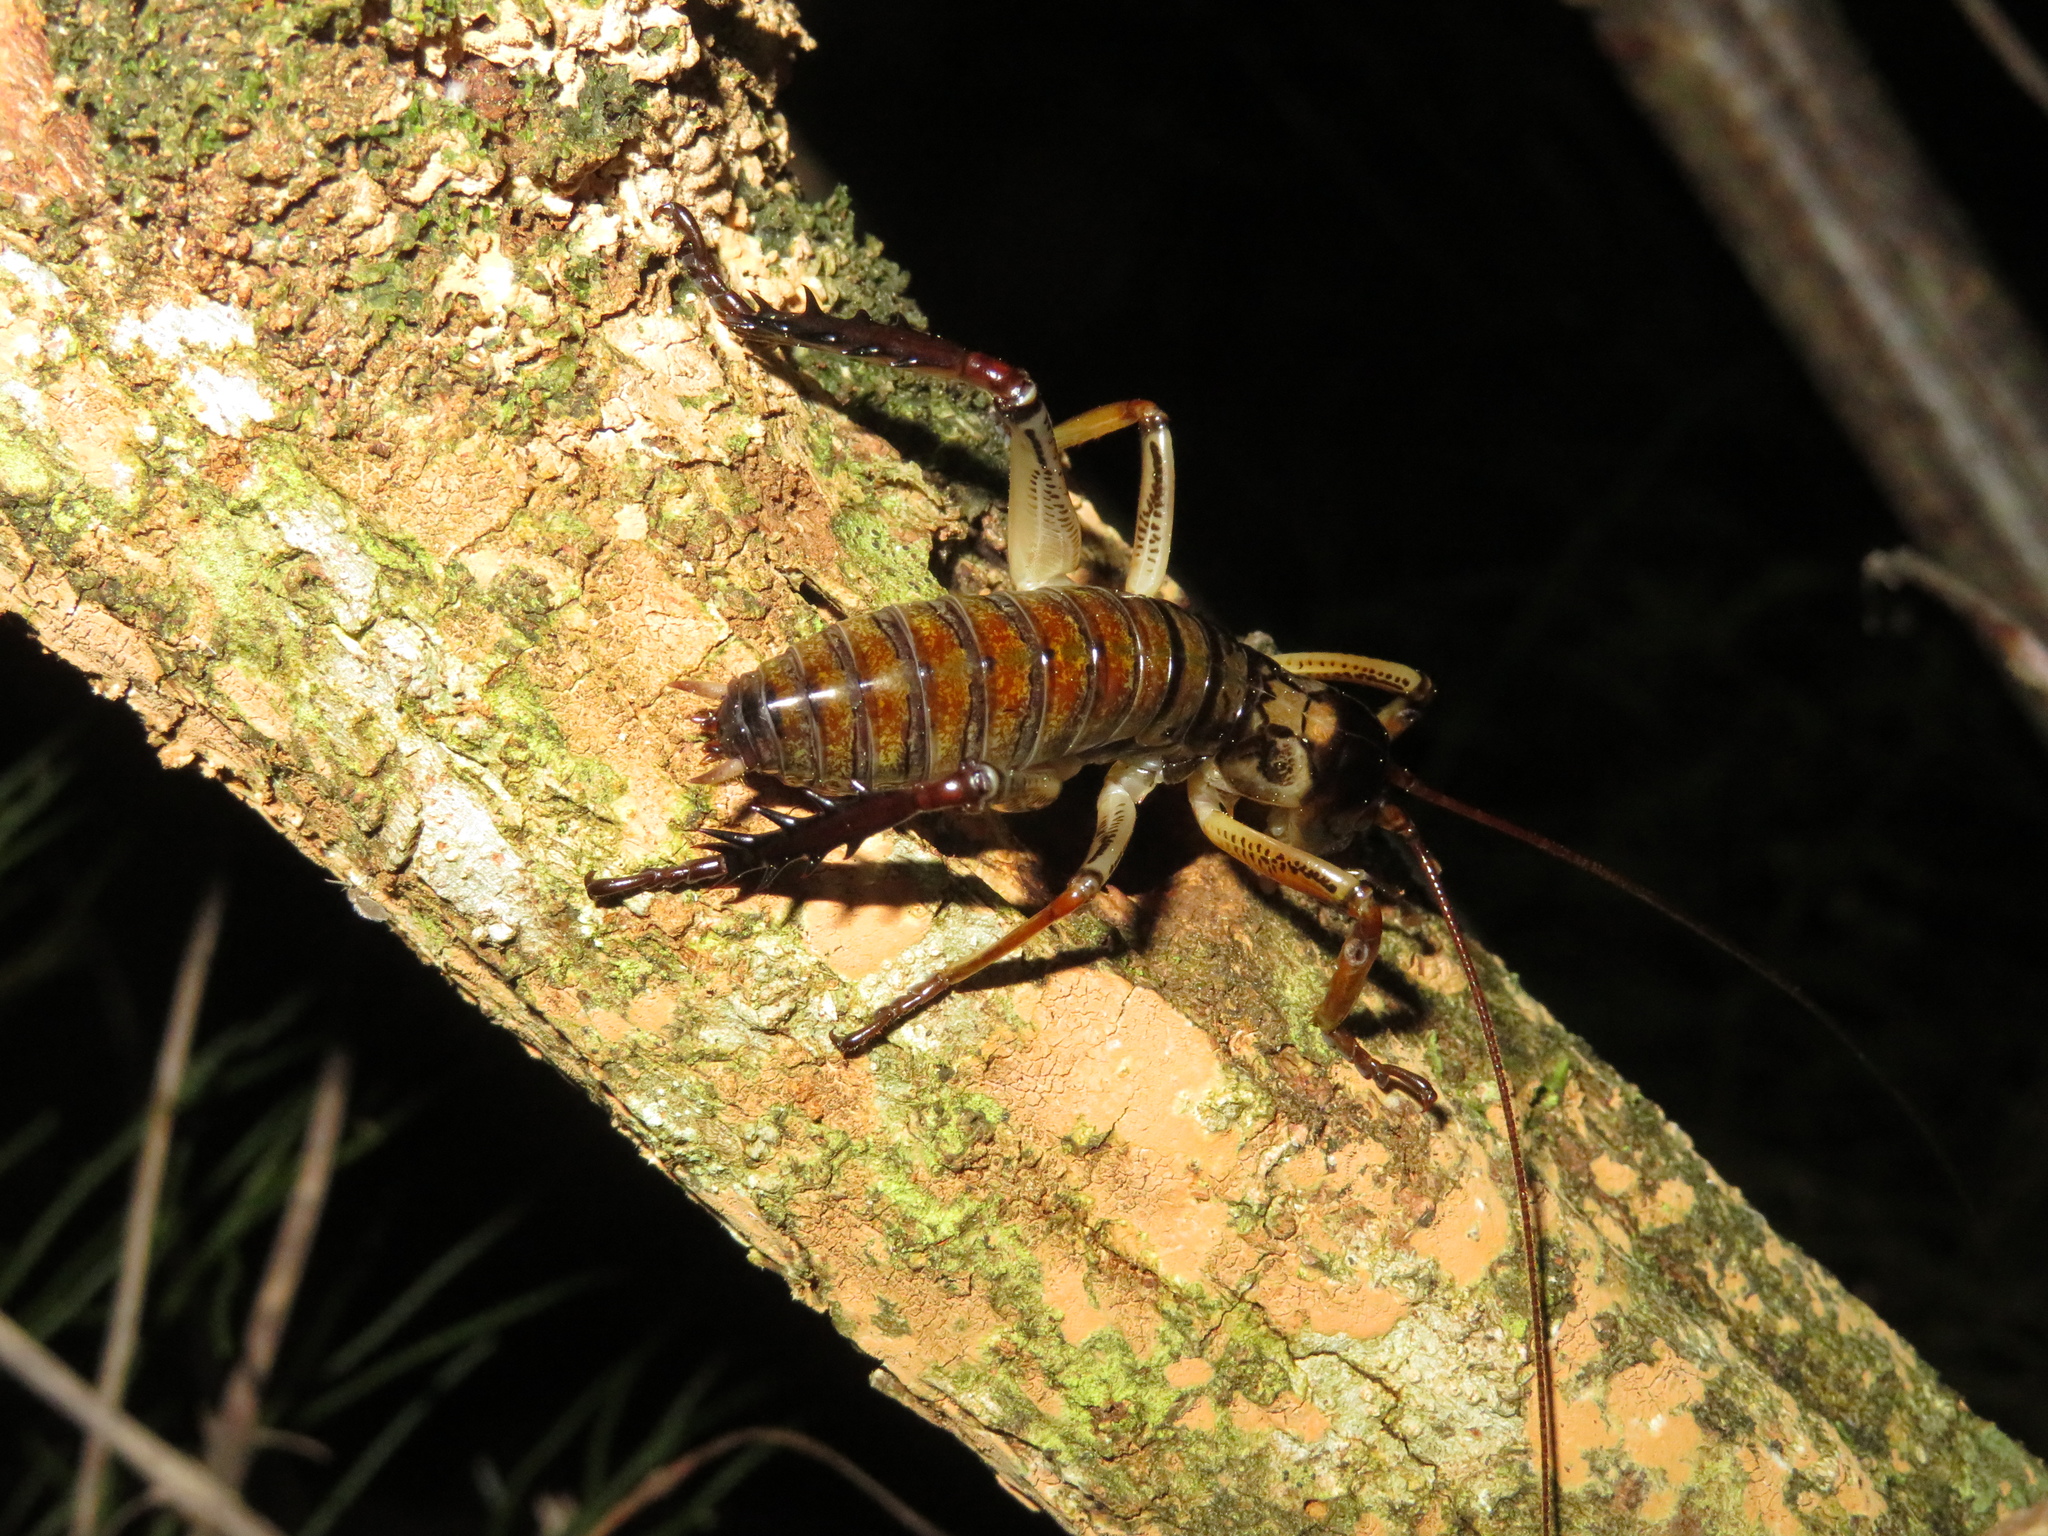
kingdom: Animalia
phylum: Arthropoda
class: Insecta
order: Orthoptera
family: Anostostomatidae
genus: Hemideina
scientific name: Hemideina thoracica
